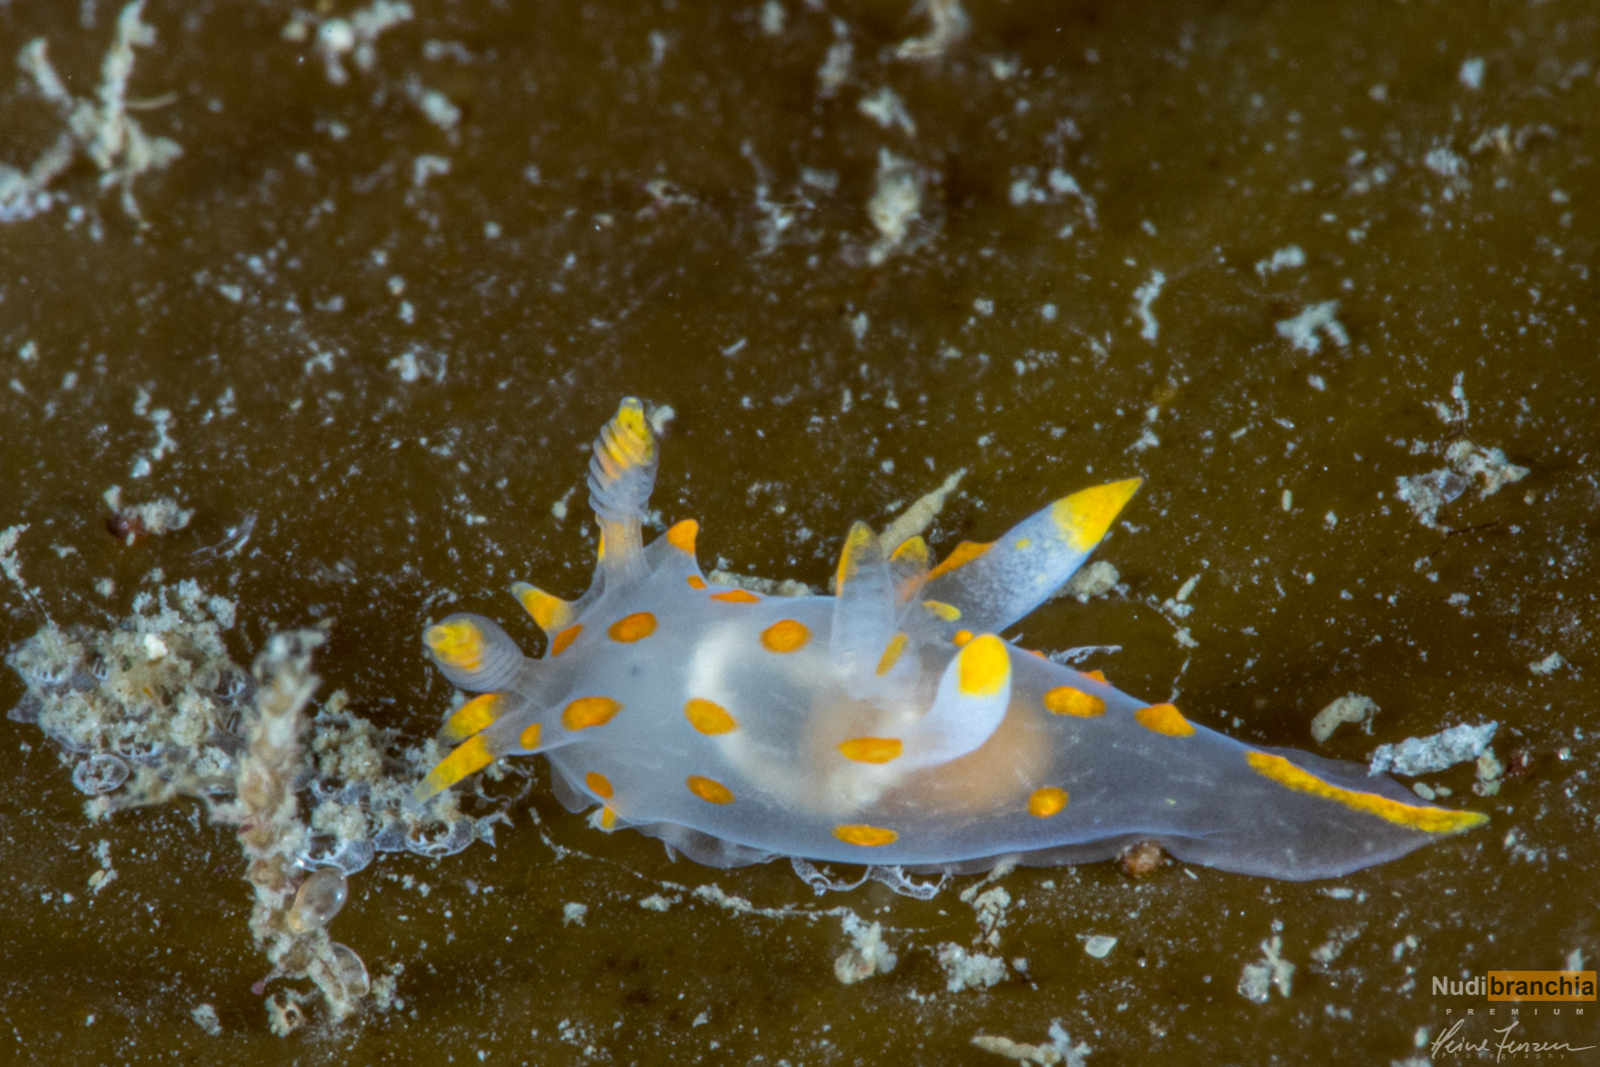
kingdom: Animalia
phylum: Mollusca
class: Gastropoda
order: Nudibranchia
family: Polyceridae
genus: Polycera
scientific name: Polycera quadrilineata
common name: Four-striped polycera
